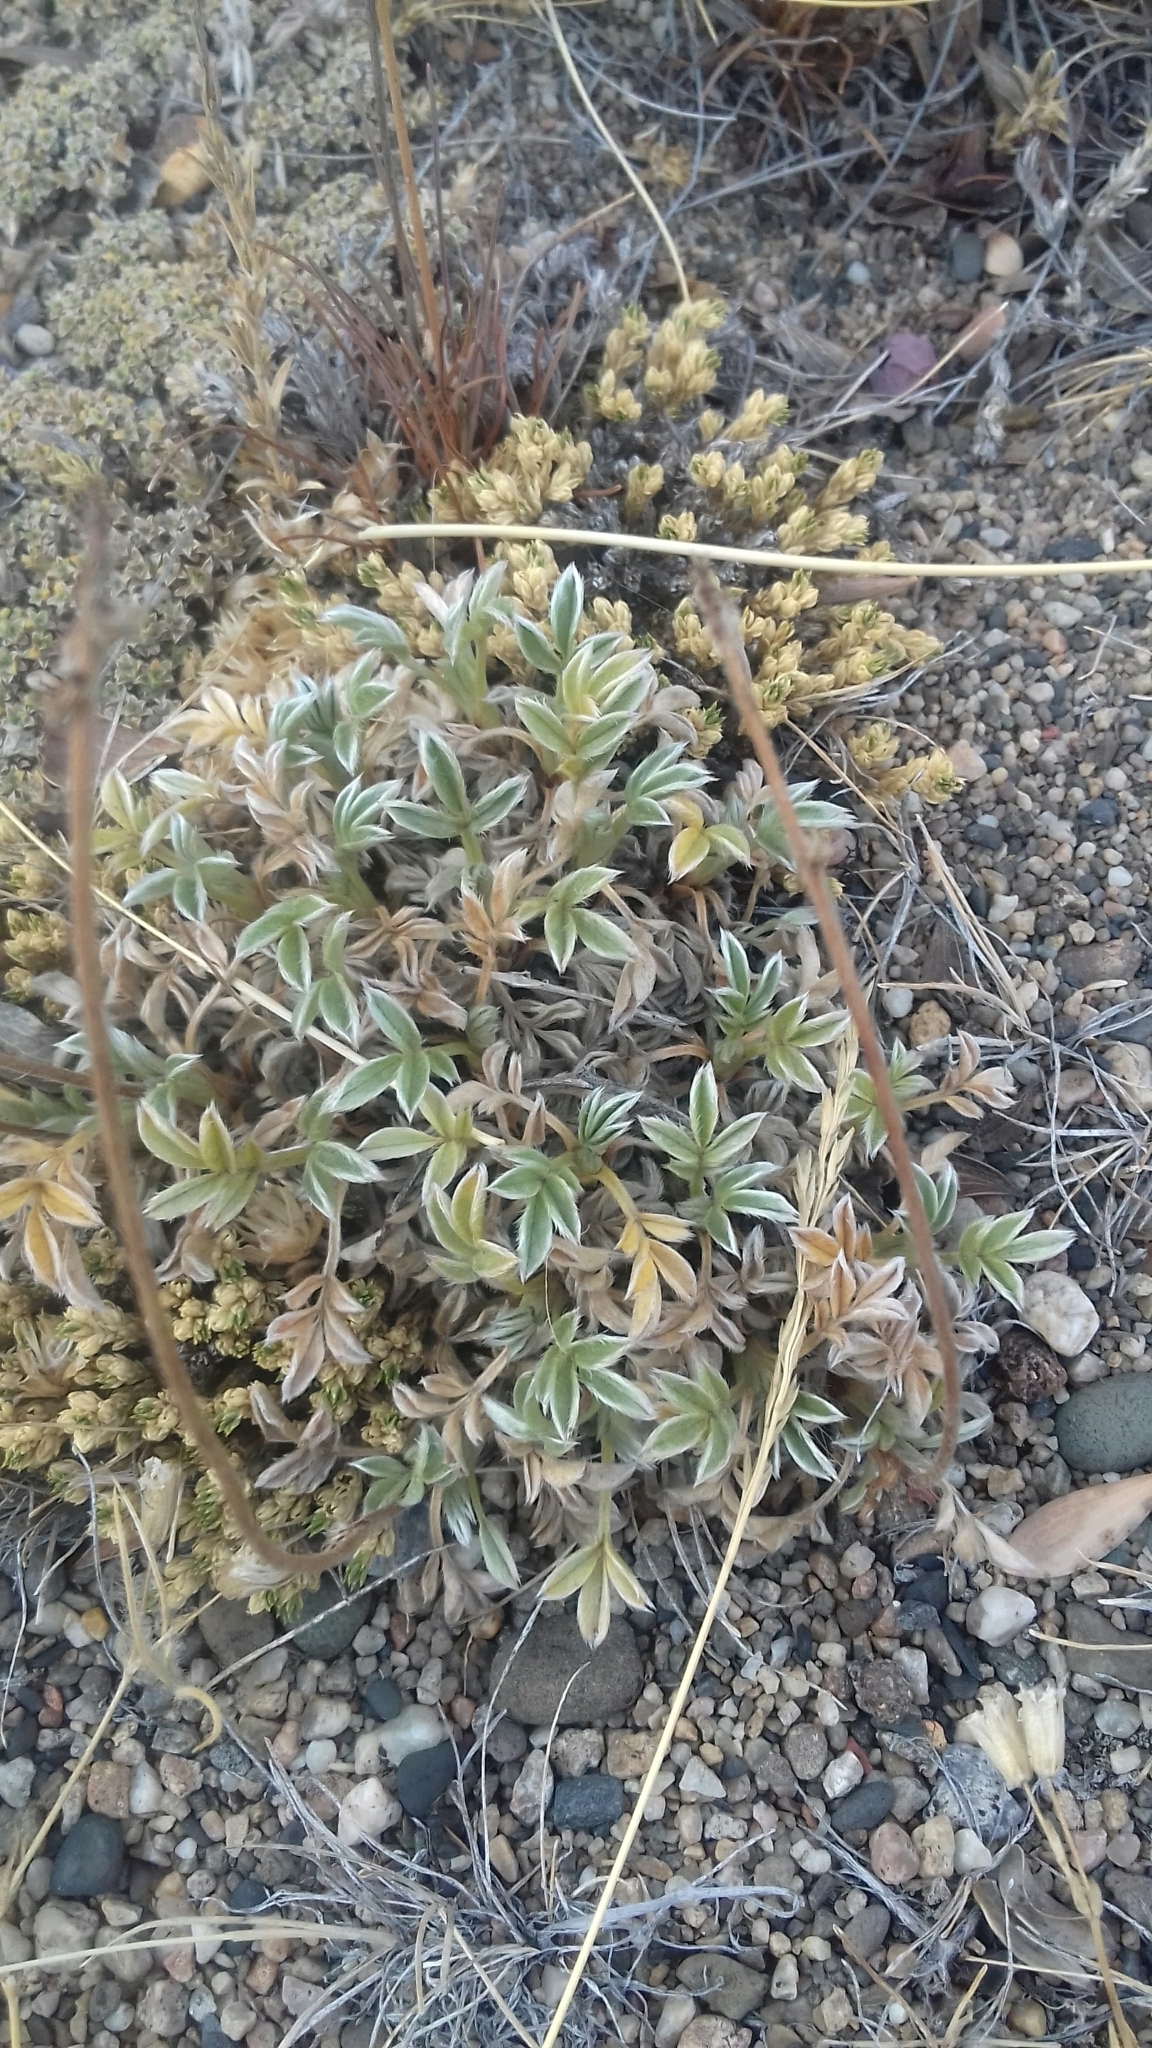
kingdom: Plantae
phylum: Tracheophyta
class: Magnoliopsida
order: Rosales
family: Rosaceae
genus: Acaena
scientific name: Acaena splendens
